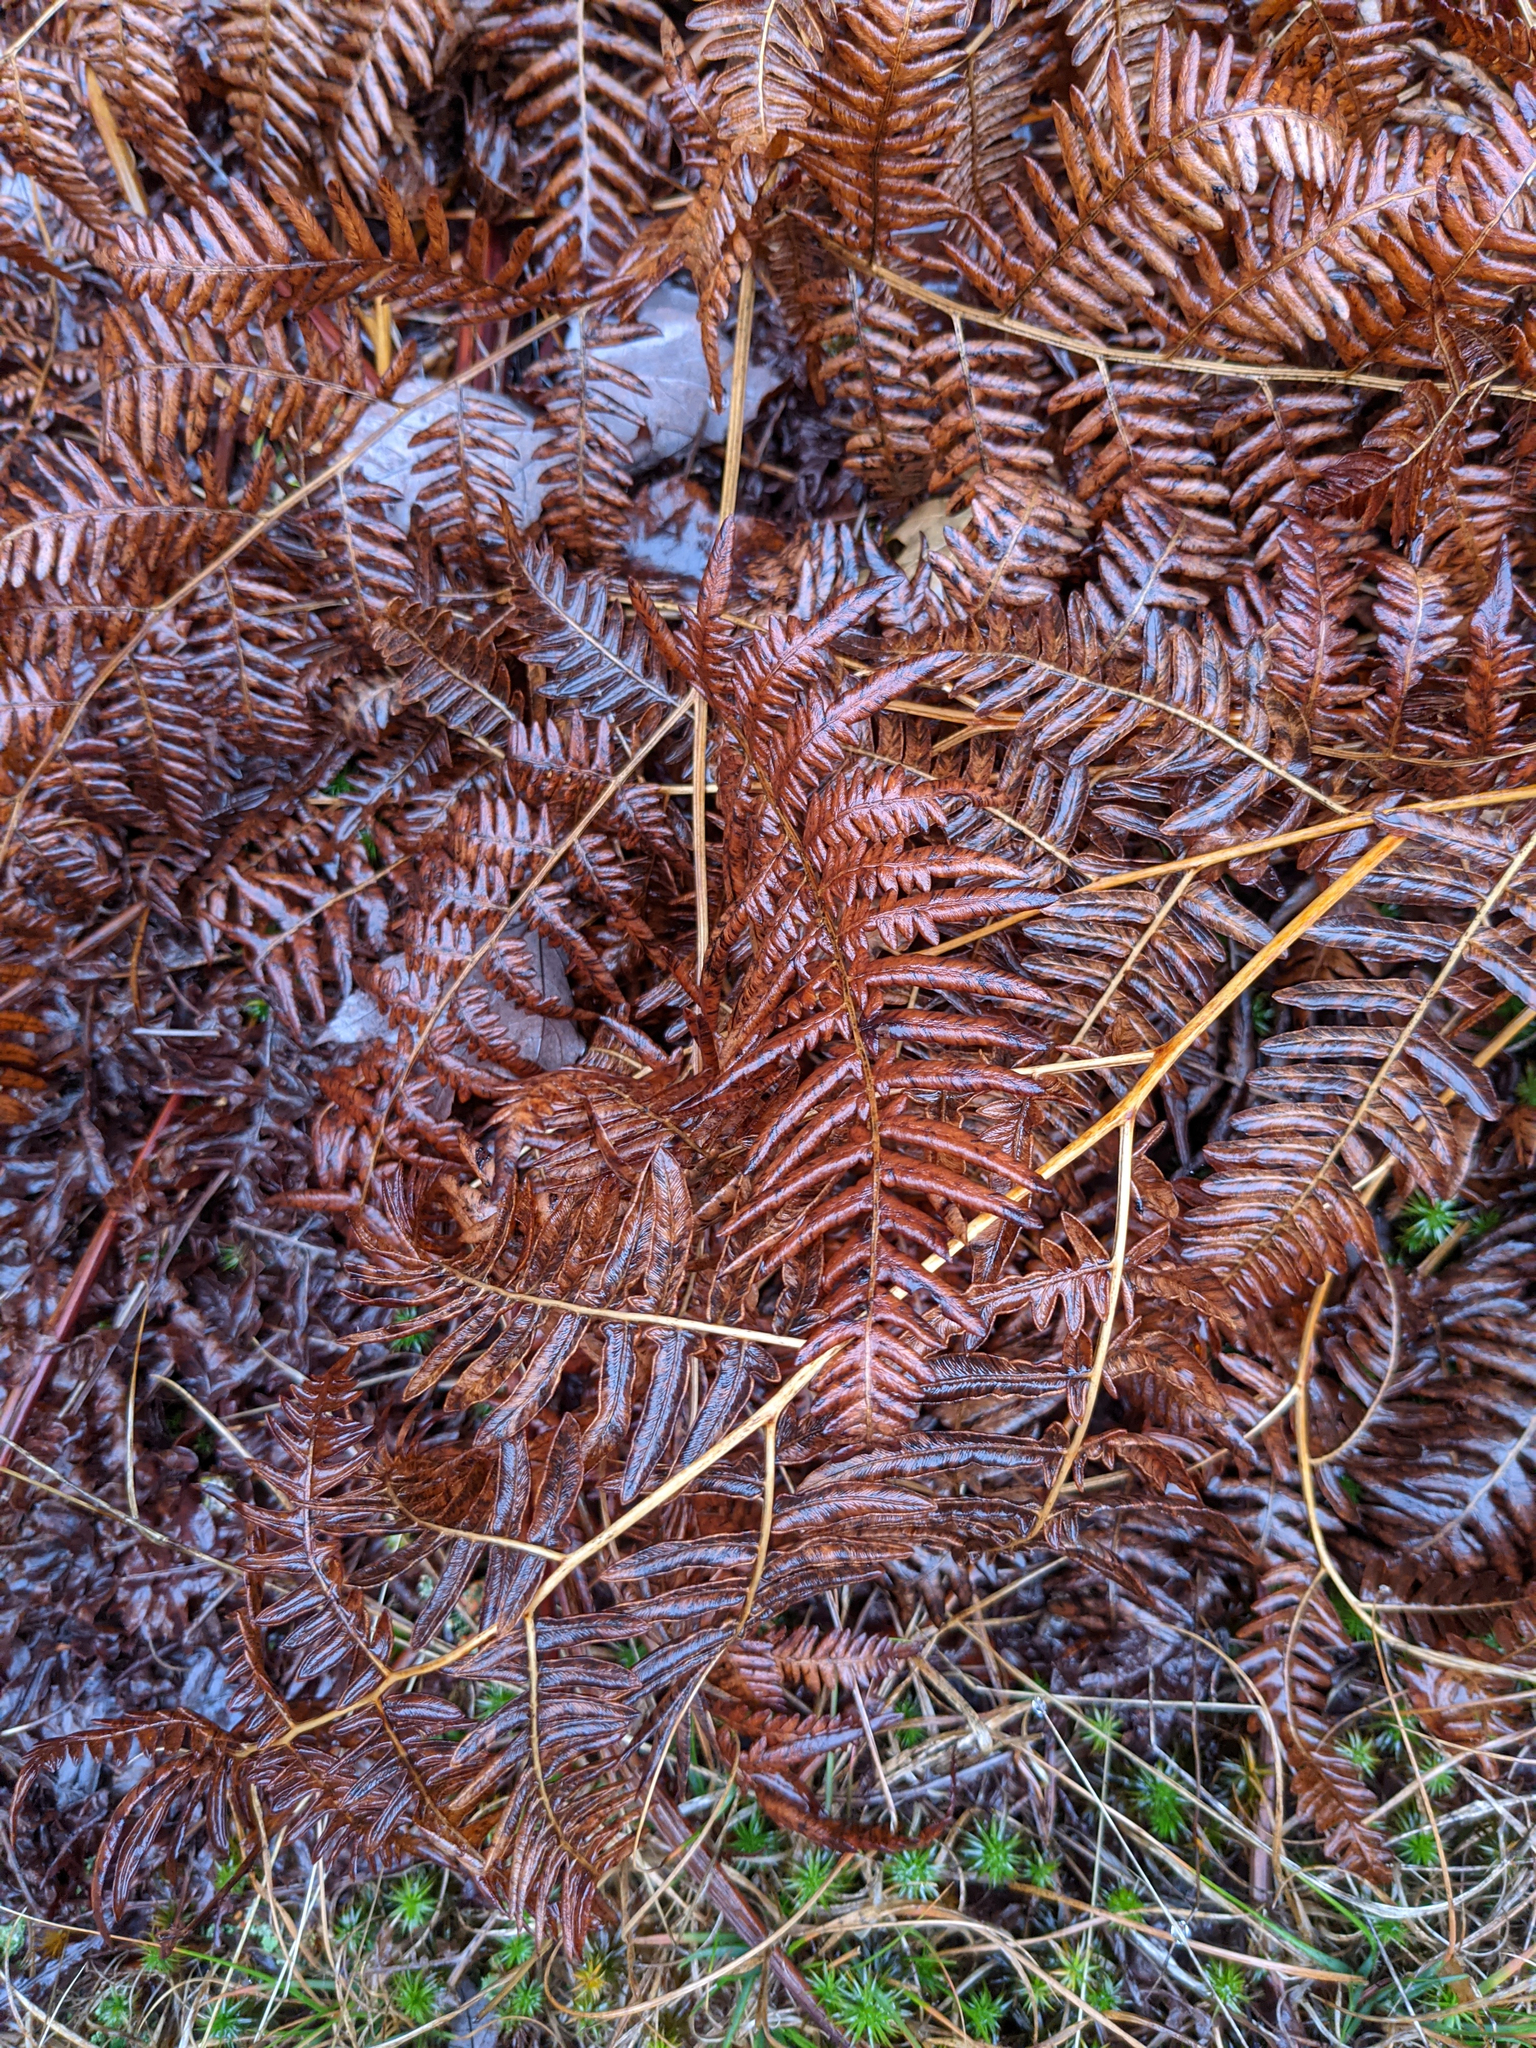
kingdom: Plantae
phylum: Tracheophyta
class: Polypodiopsida
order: Polypodiales
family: Dennstaedtiaceae
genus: Pteridium
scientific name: Pteridium aquilinum
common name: Bracken
